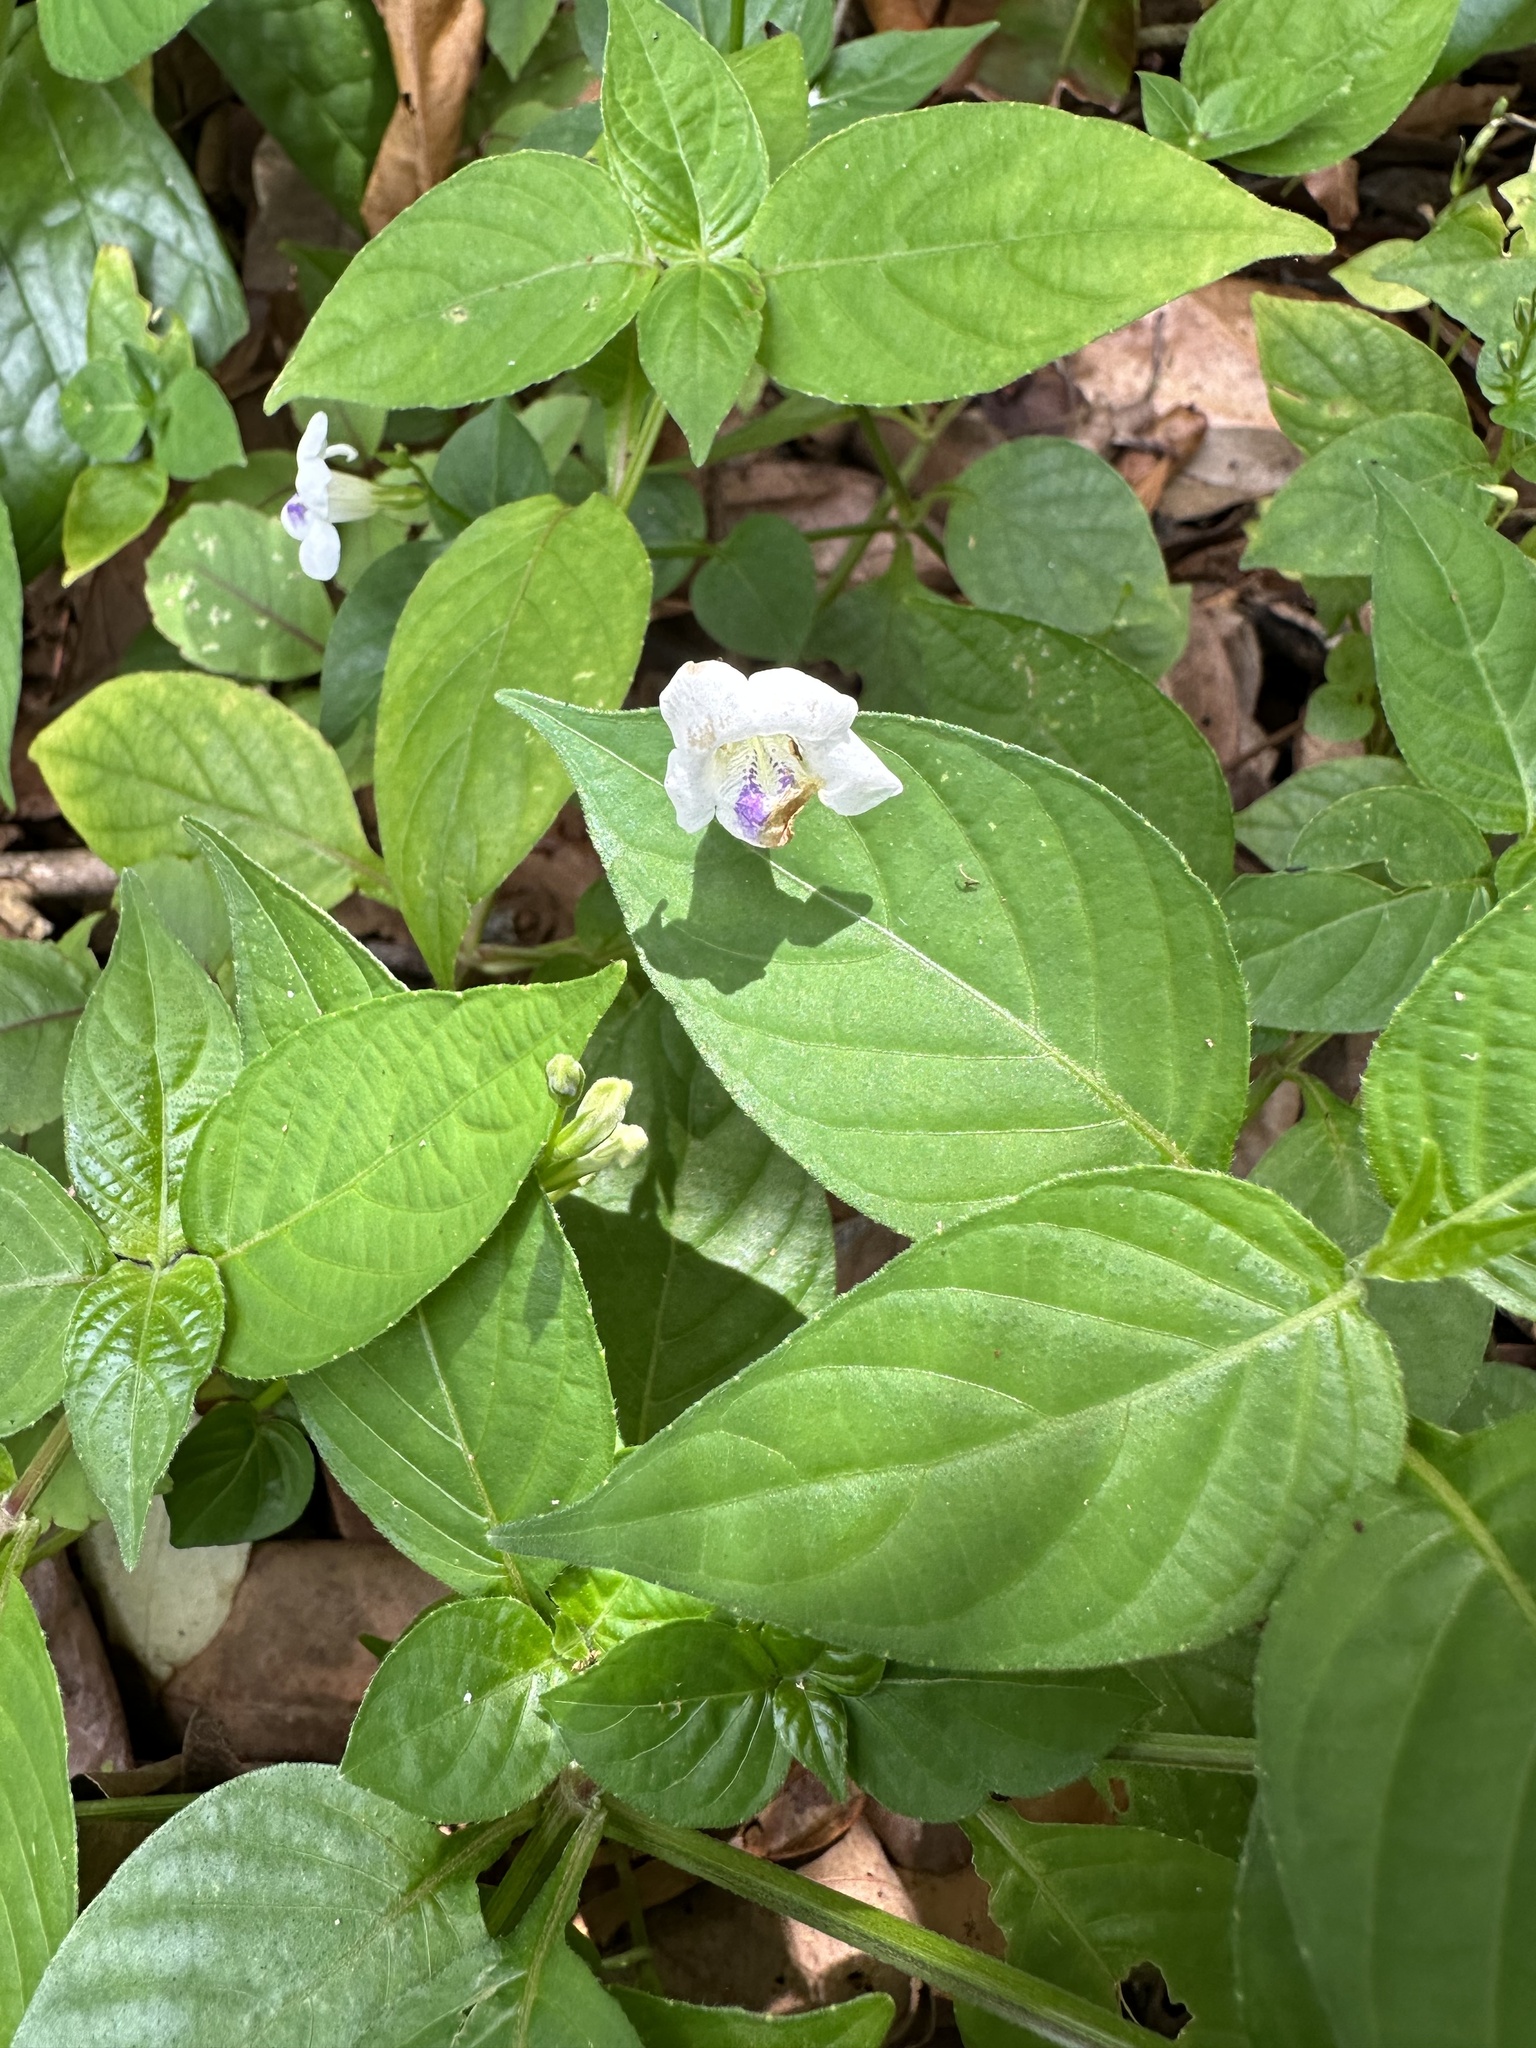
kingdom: Plantae
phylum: Tracheophyta
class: Magnoliopsida
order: Lamiales
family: Acanthaceae
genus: Asystasia
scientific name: Asystasia intrusa
